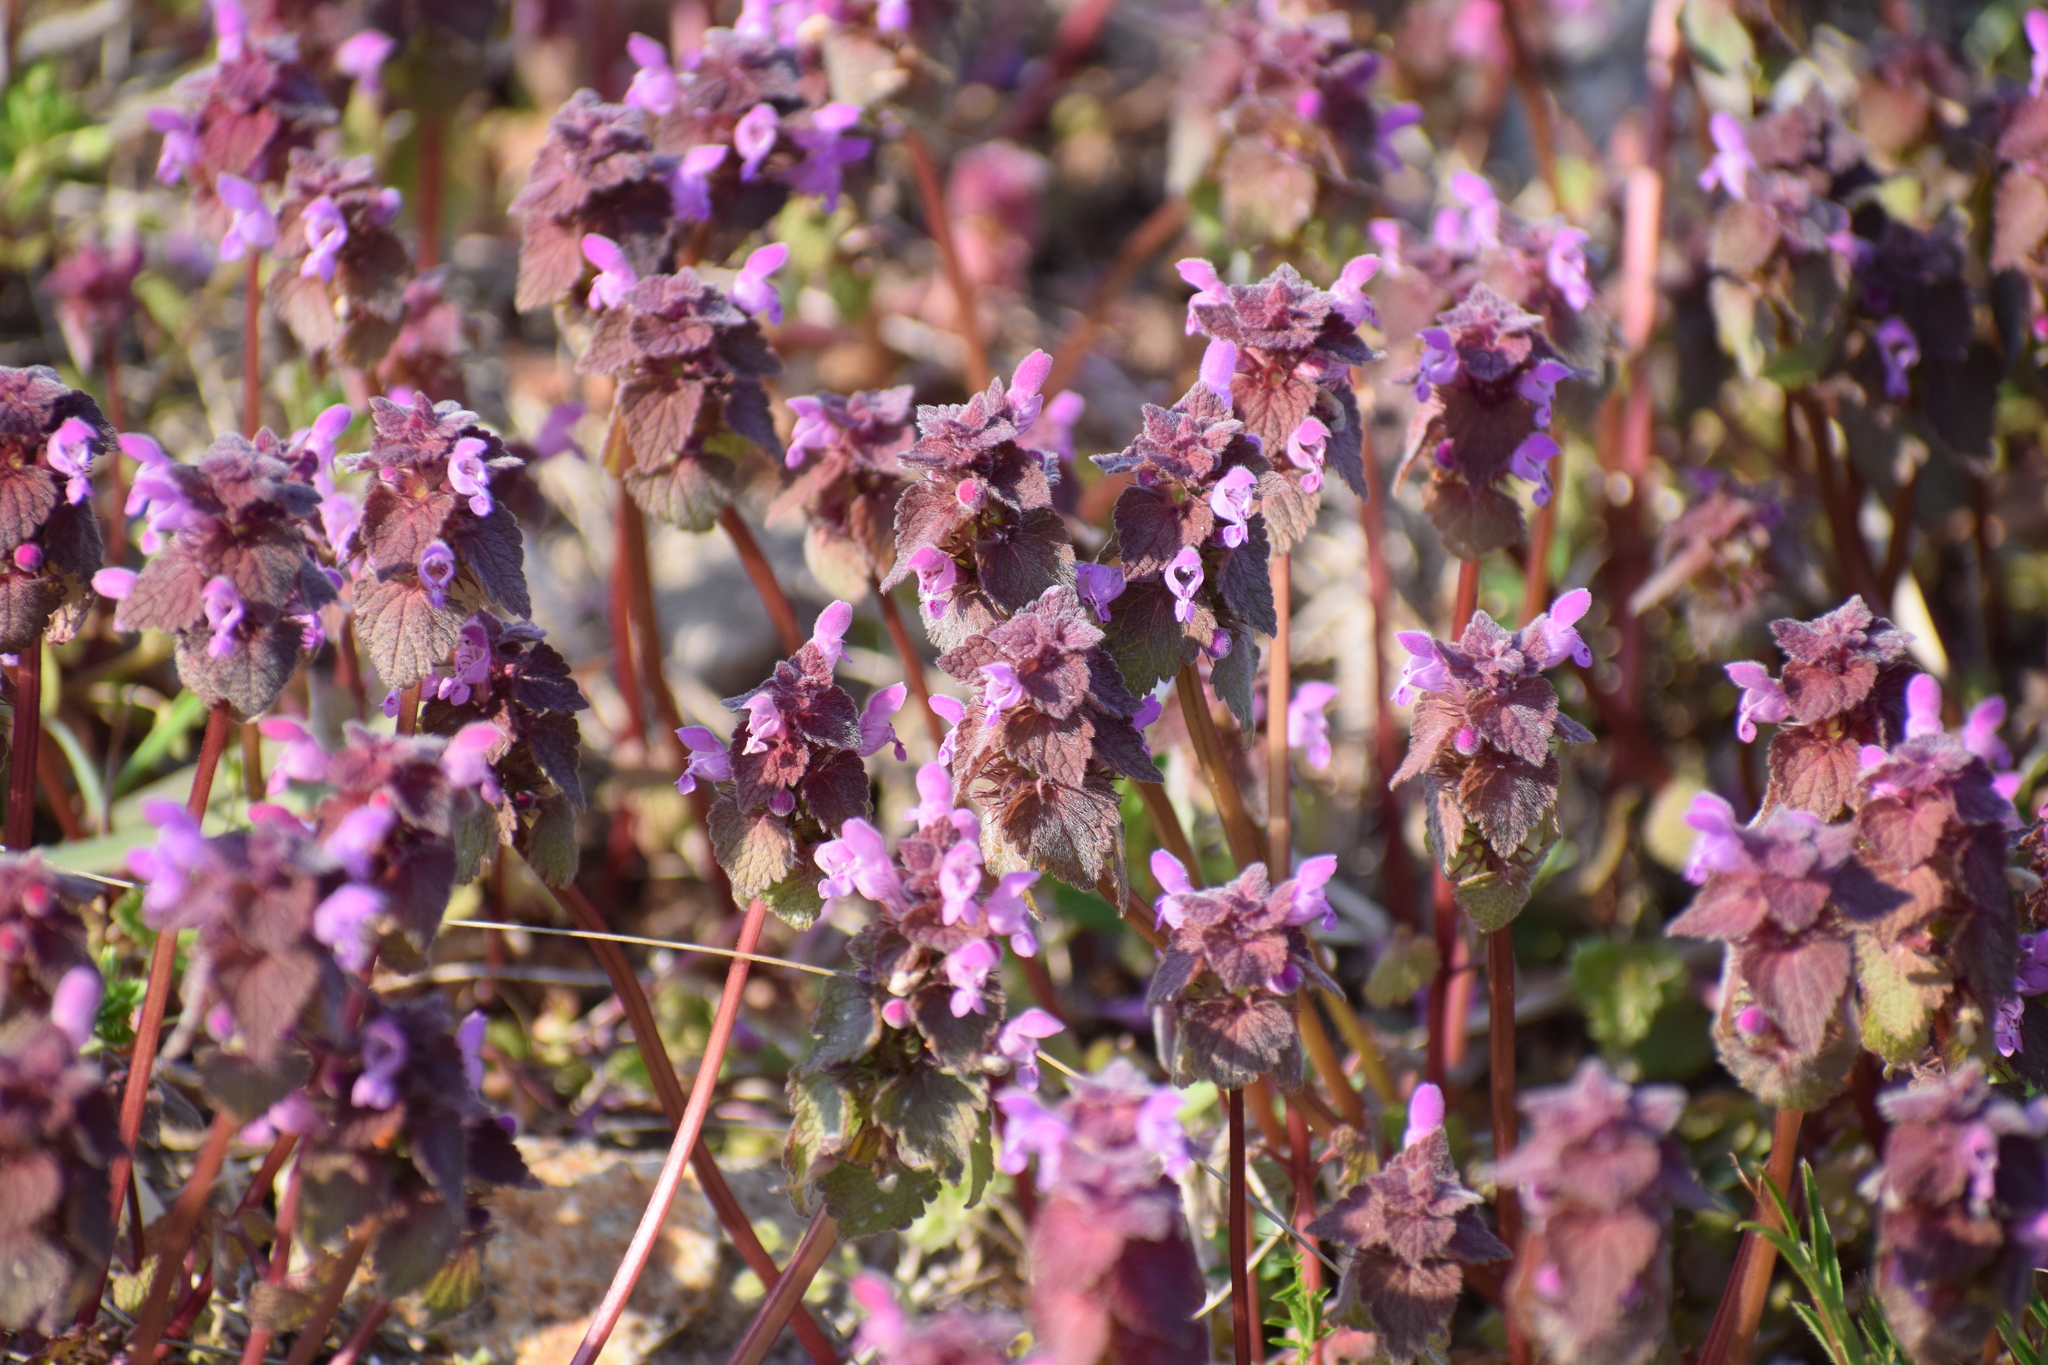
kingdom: Plantae
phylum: Tracheophyta
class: Magnoliopsida
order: Lamiales
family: Lamiaceae
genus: Lamium
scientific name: Lamium purpureum
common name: Red dead-nettle
